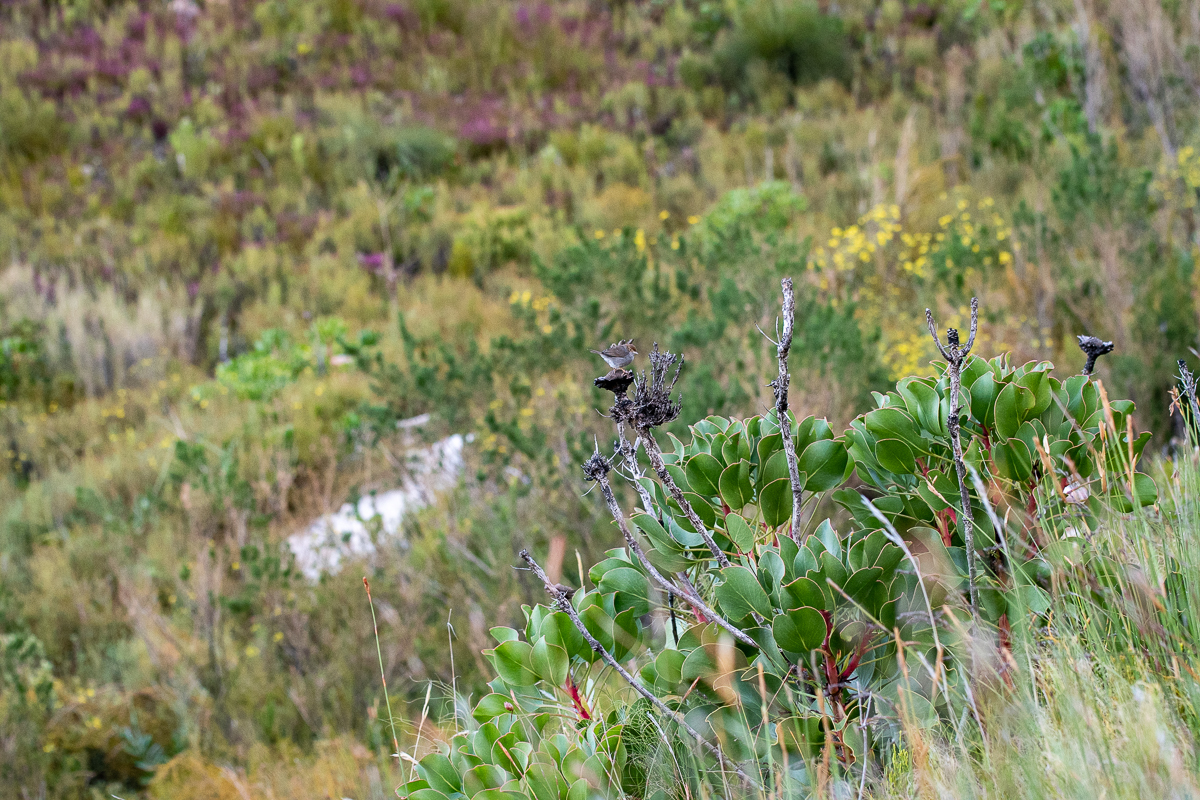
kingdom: Plantae
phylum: Tracheophyta
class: Magnoliopsida
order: Proteales
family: Proteaceae
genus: Protea
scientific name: Protea cynaroides
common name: King protea
